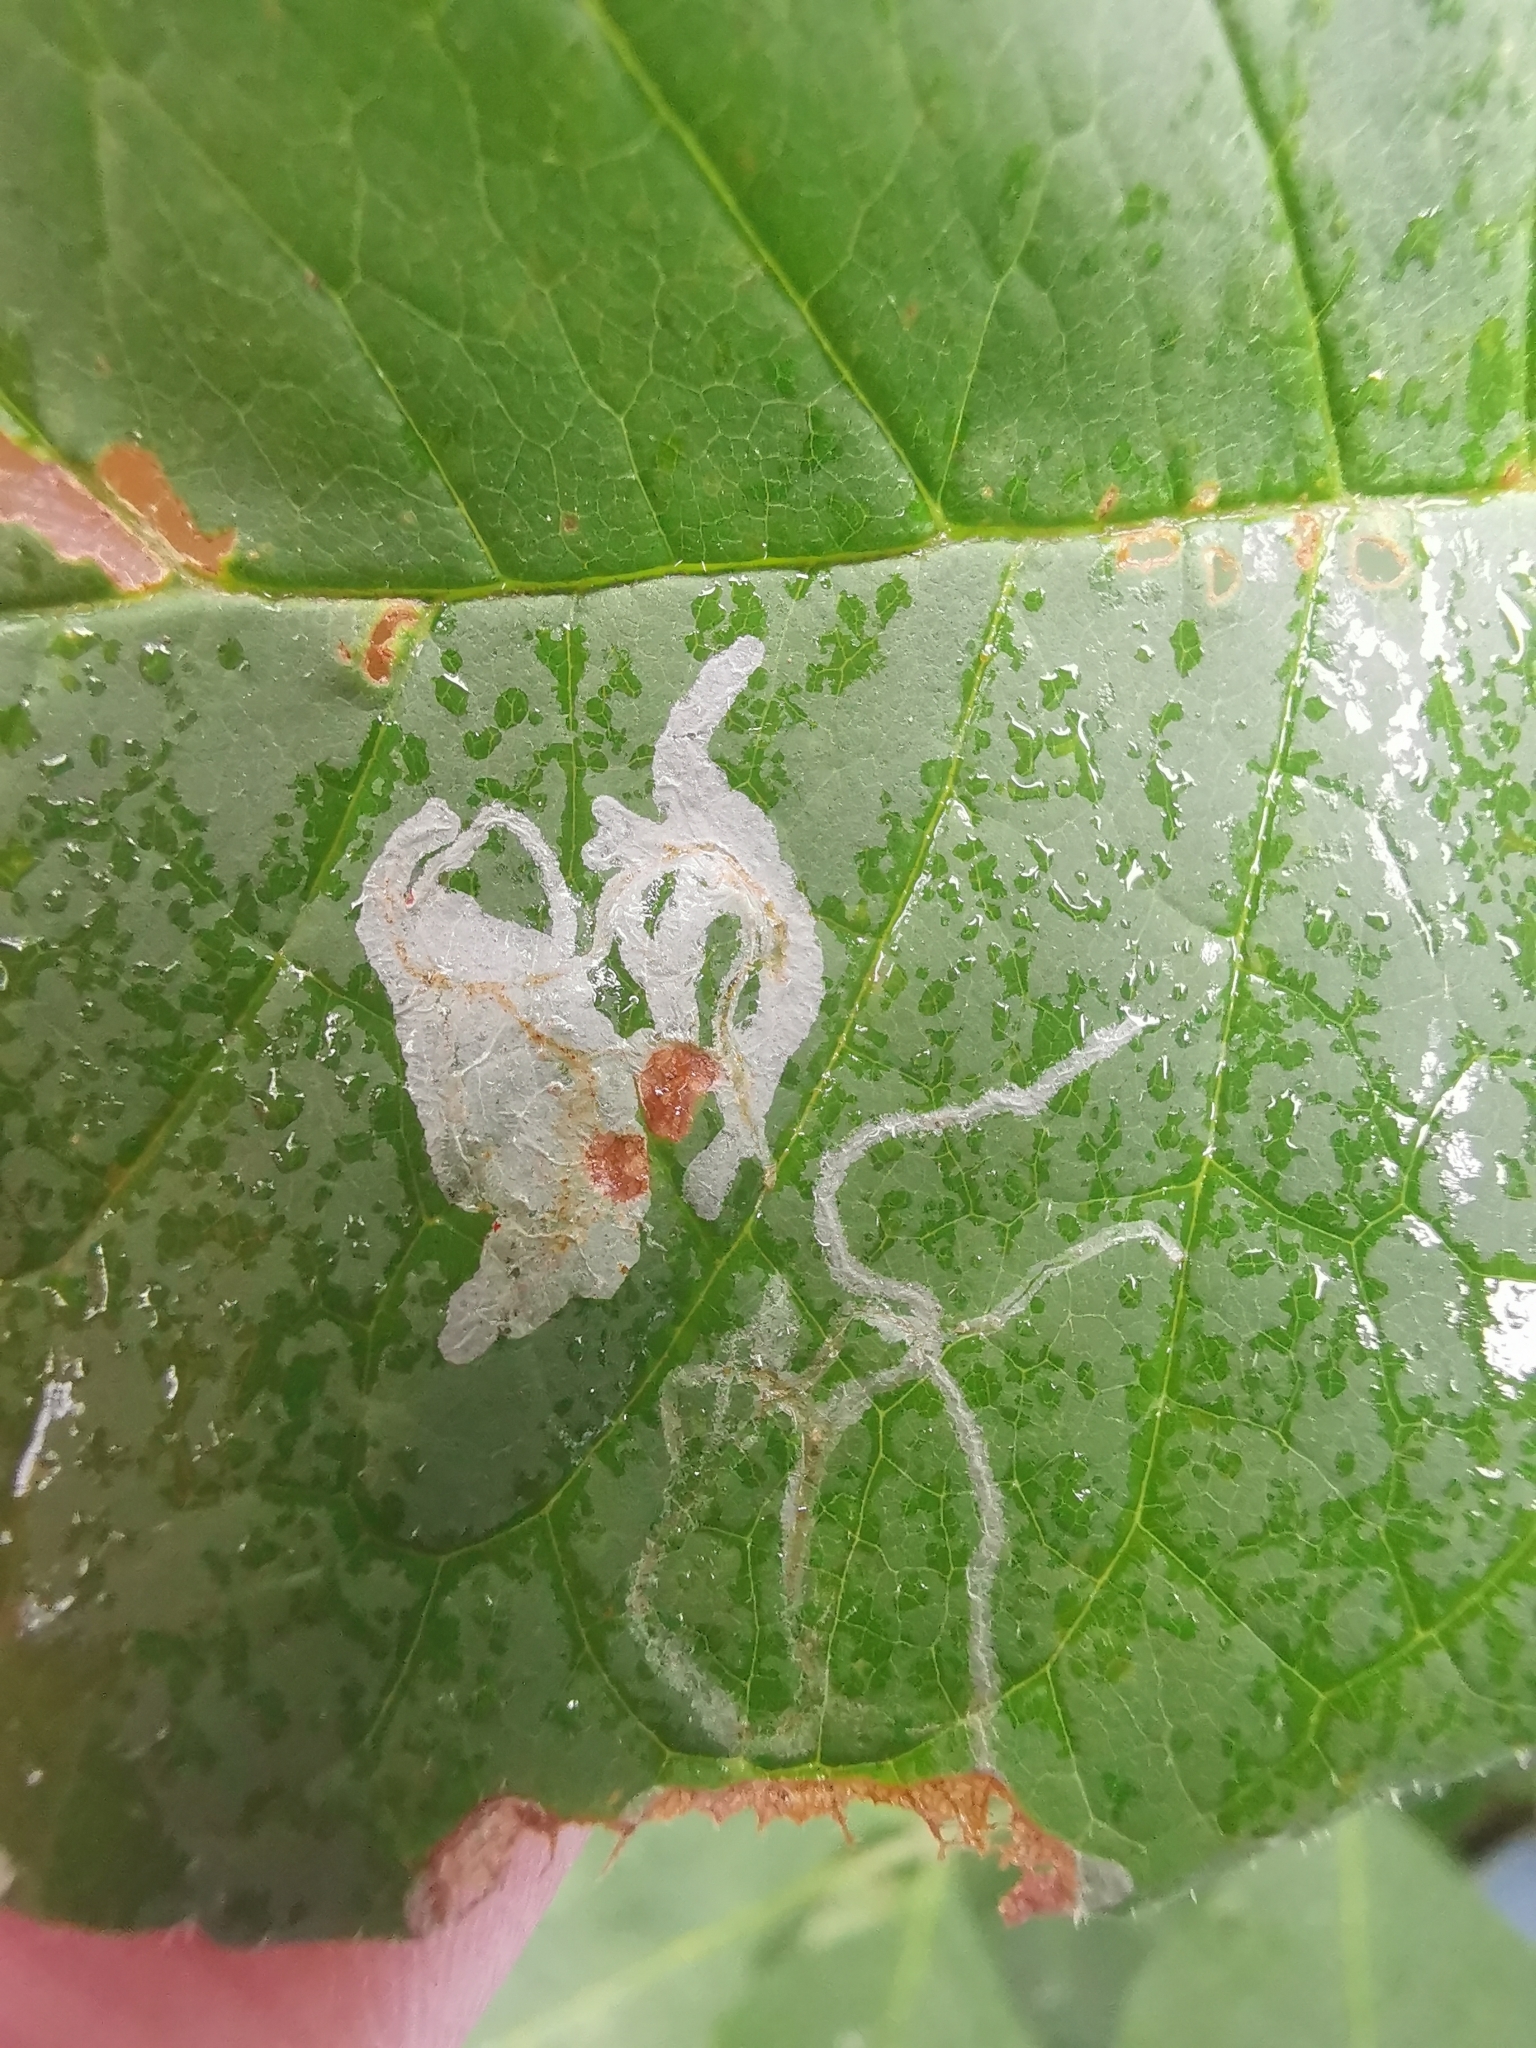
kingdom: Animalia
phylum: Arthropoda
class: Insecta
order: Lepidoptera
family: Gracillariidae
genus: Caloptilia
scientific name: Caloptilia fraxinella
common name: Ash leaf cone roller
